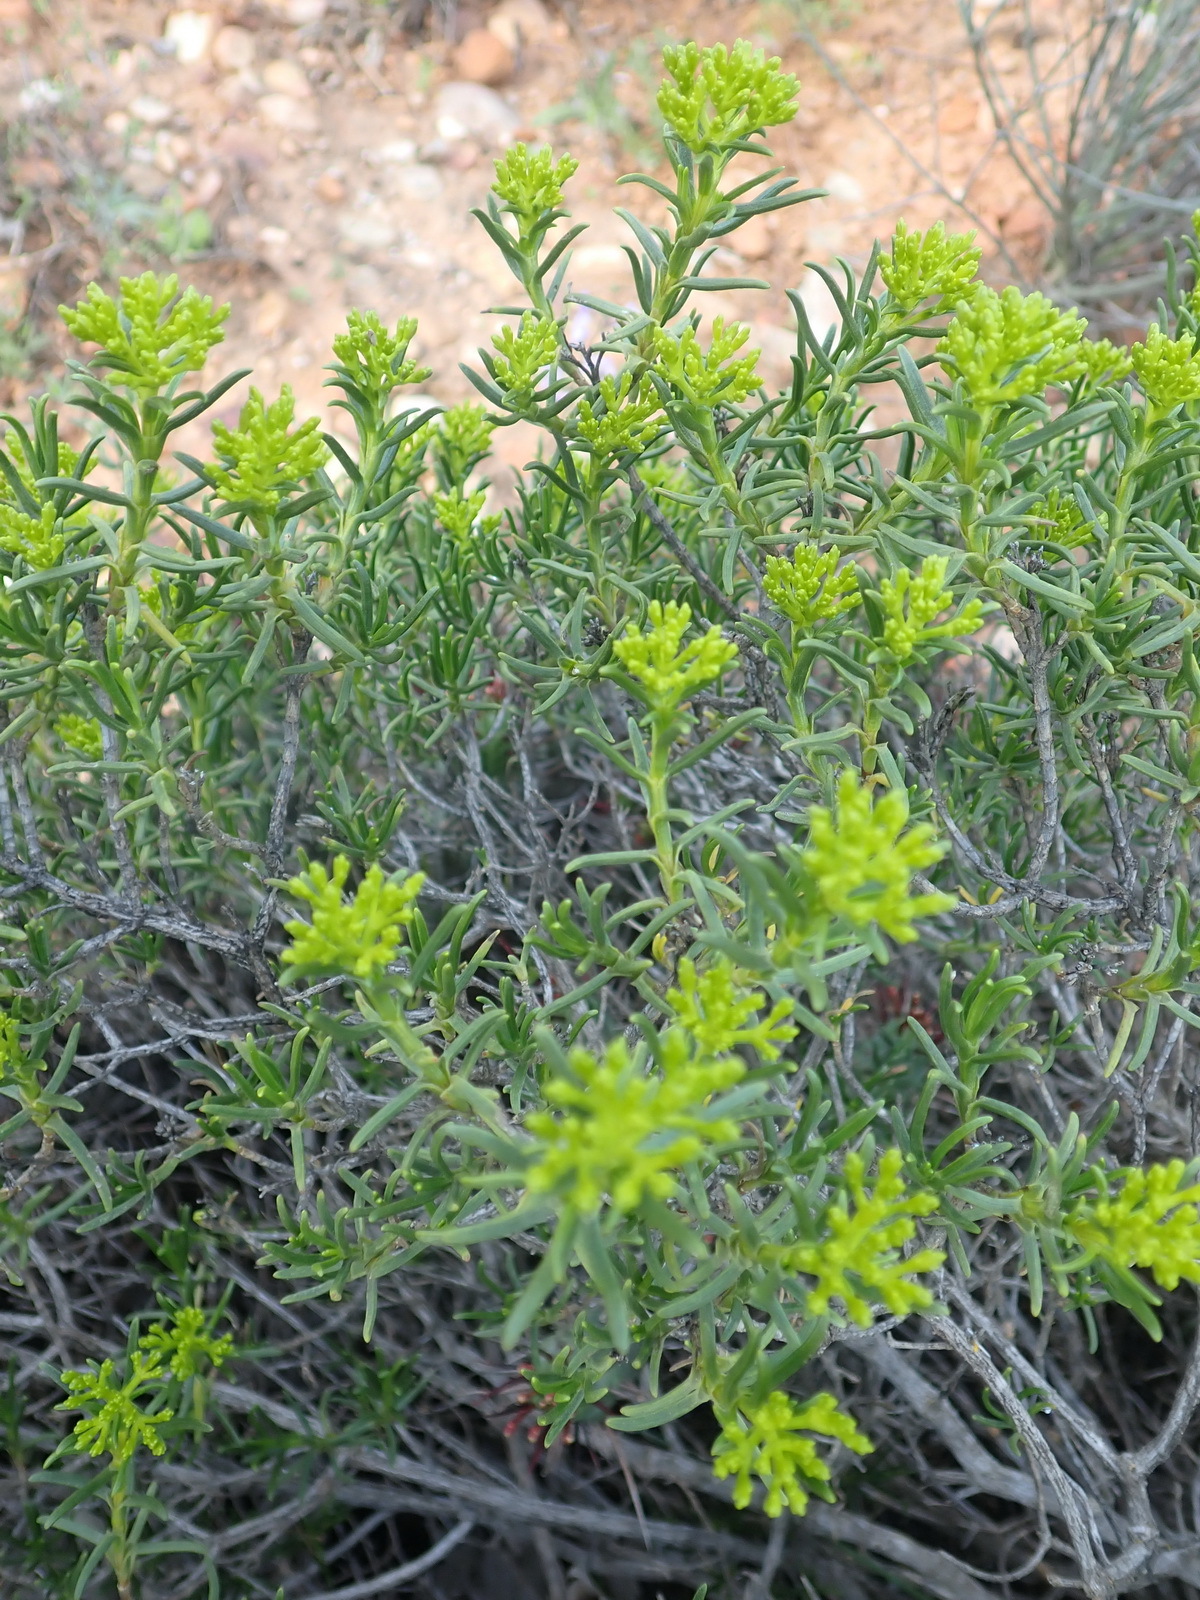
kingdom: Plantae
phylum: Tracheophyta
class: Magnoliopsida
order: Asterales
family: Asteraceae
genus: Pteronia
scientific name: Pteronia paniculata
